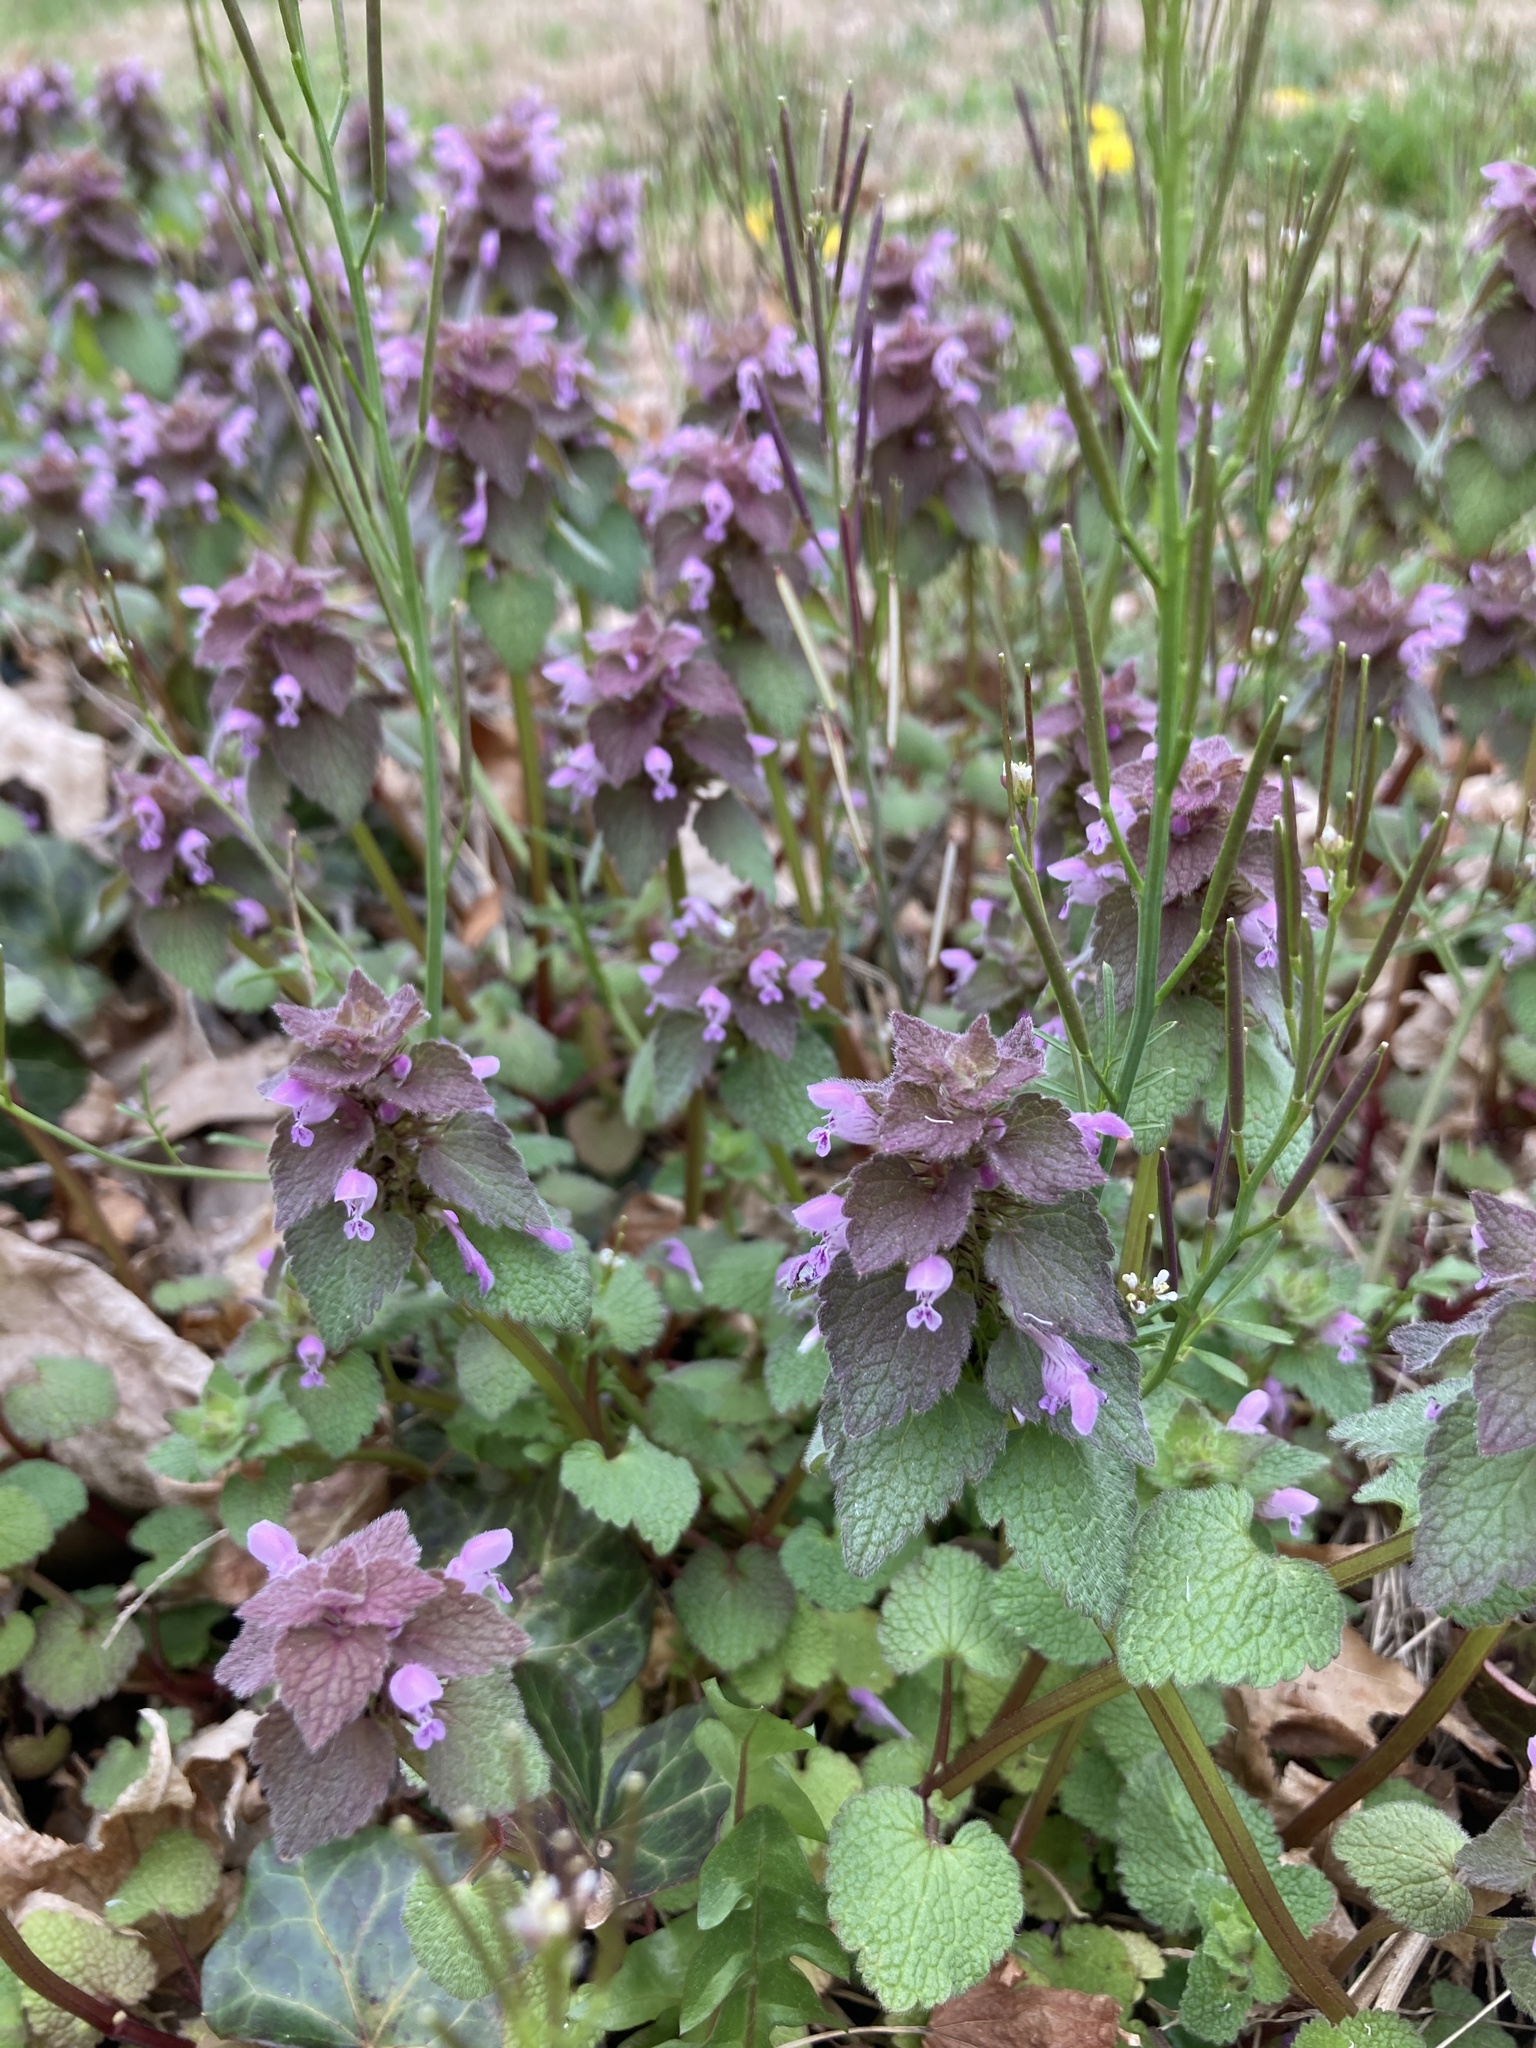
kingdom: Plantae
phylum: Tracheophyta
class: Magnoliopsida
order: Lamiales
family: Lamiaceae
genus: Lamium
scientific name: Lamium purpureum
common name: Red dead-nettle
